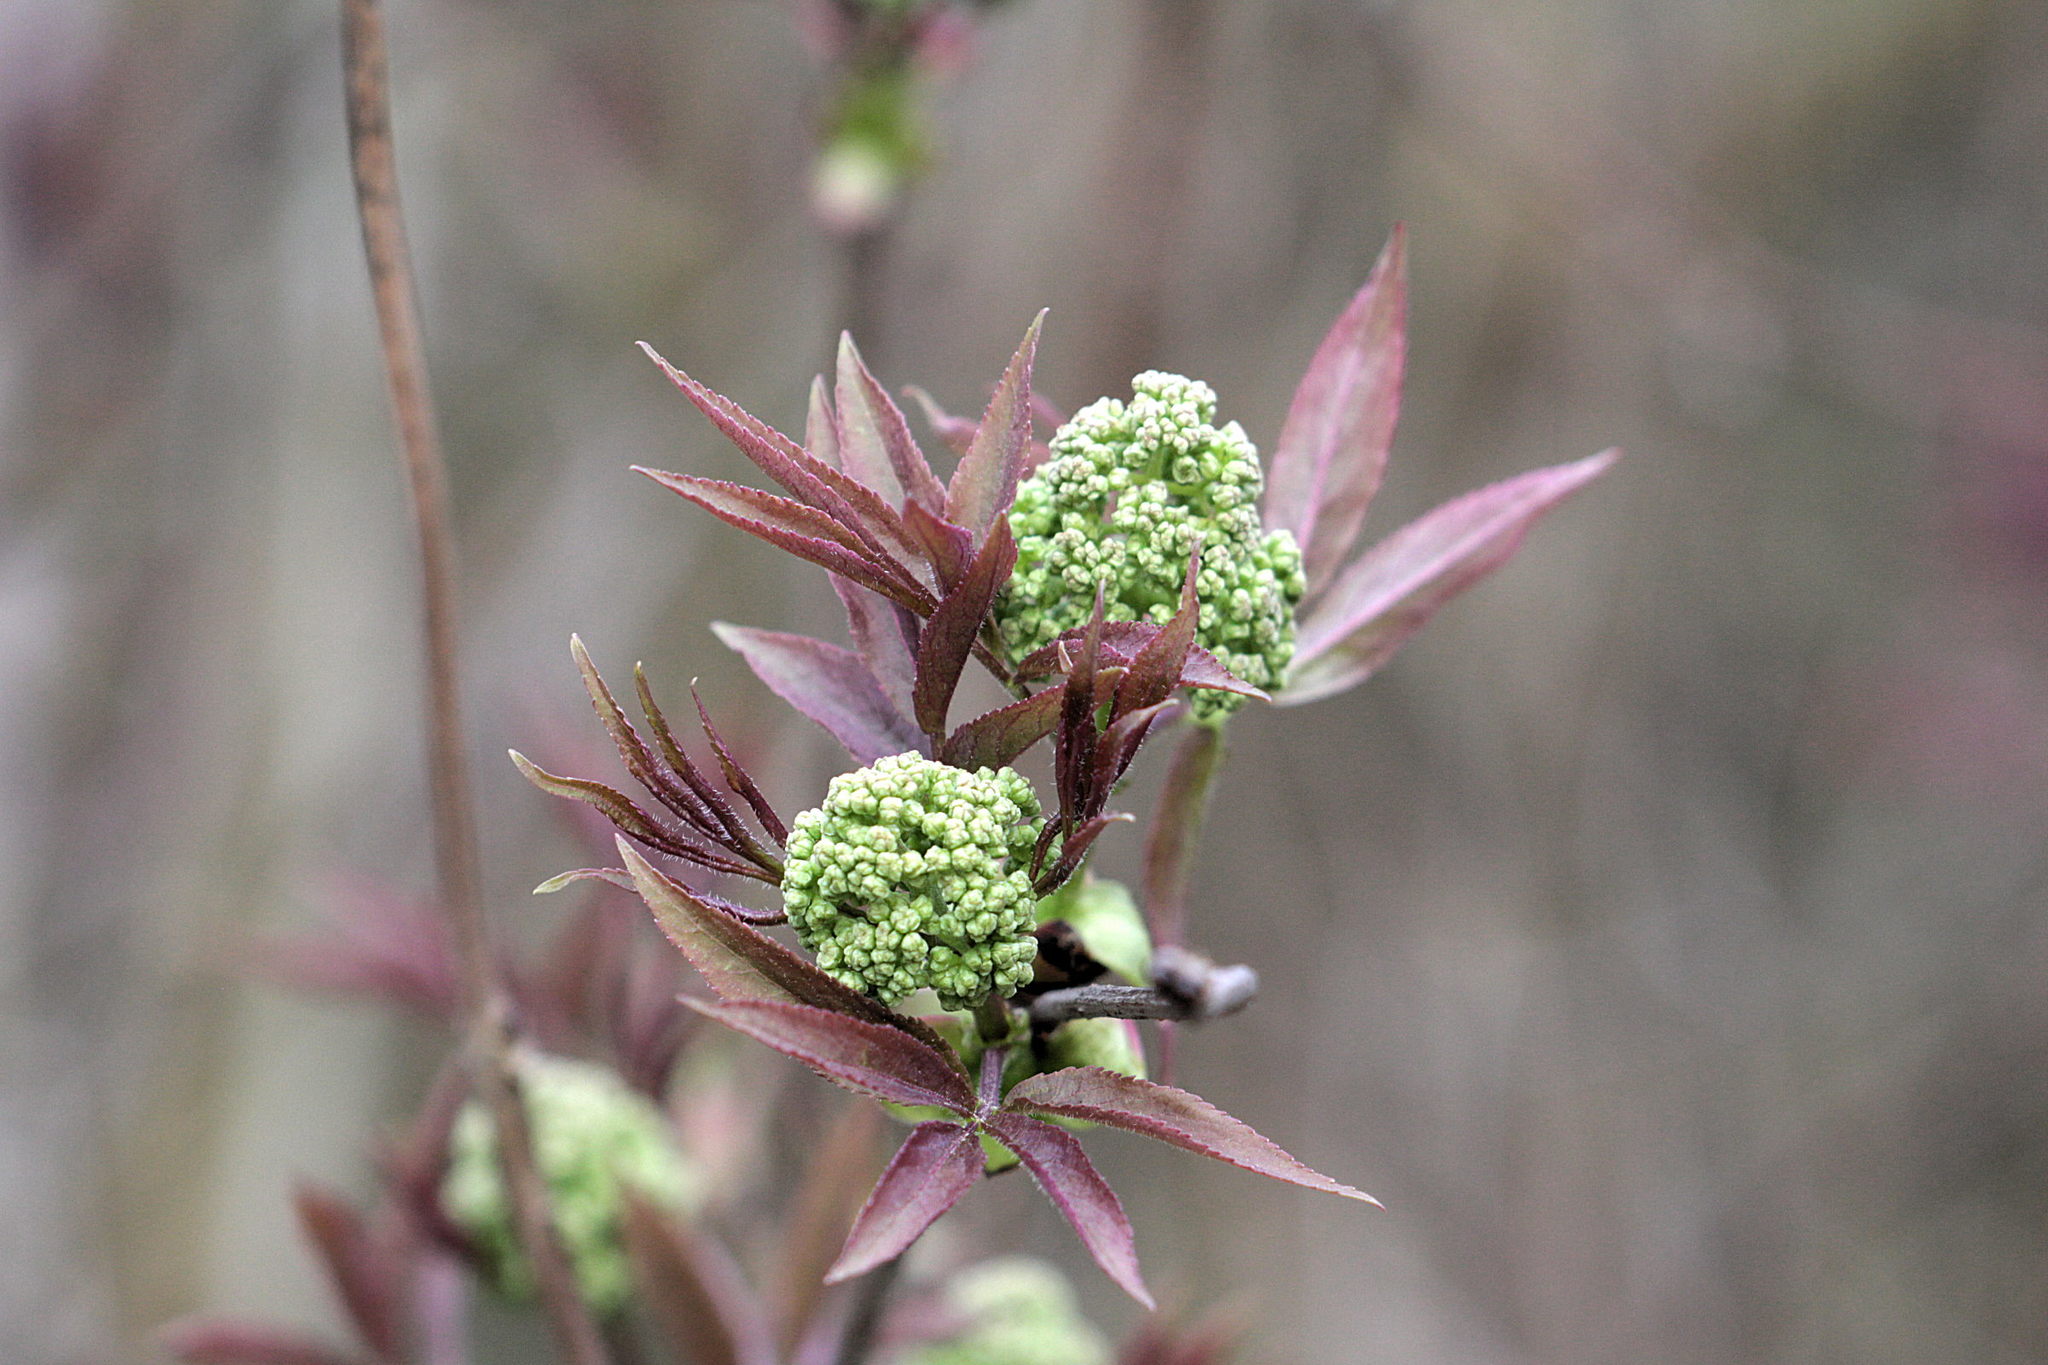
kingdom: Plantae
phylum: Tracheophyta
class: Magnoliopsida
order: Dipsacales
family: Viburnaceae
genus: Sambucus
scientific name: Sambucus racemosa
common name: Red-berried elder
